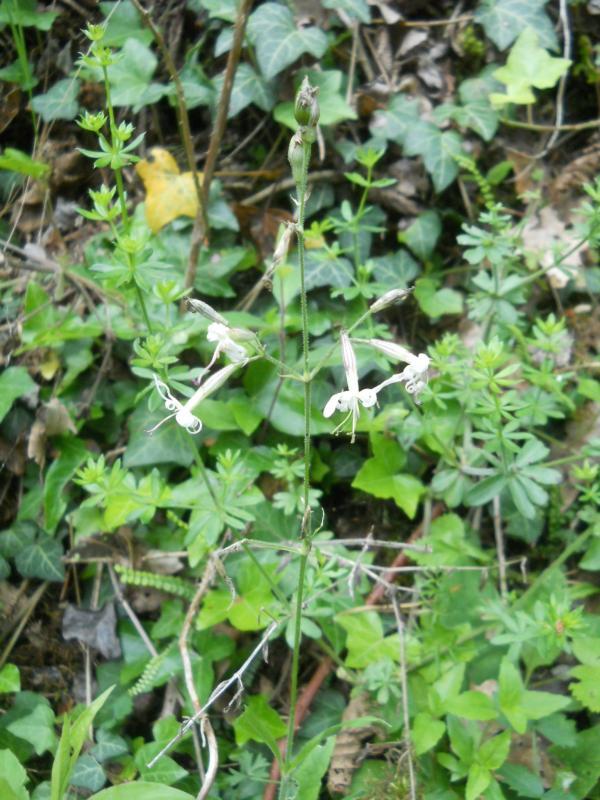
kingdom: Plantae
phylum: Tracheophyta
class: Magnoliopsida
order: Caryophyllales
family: Caryophyllaceae
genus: Silene
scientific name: Silene nutans
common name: Nottingham catchfly
